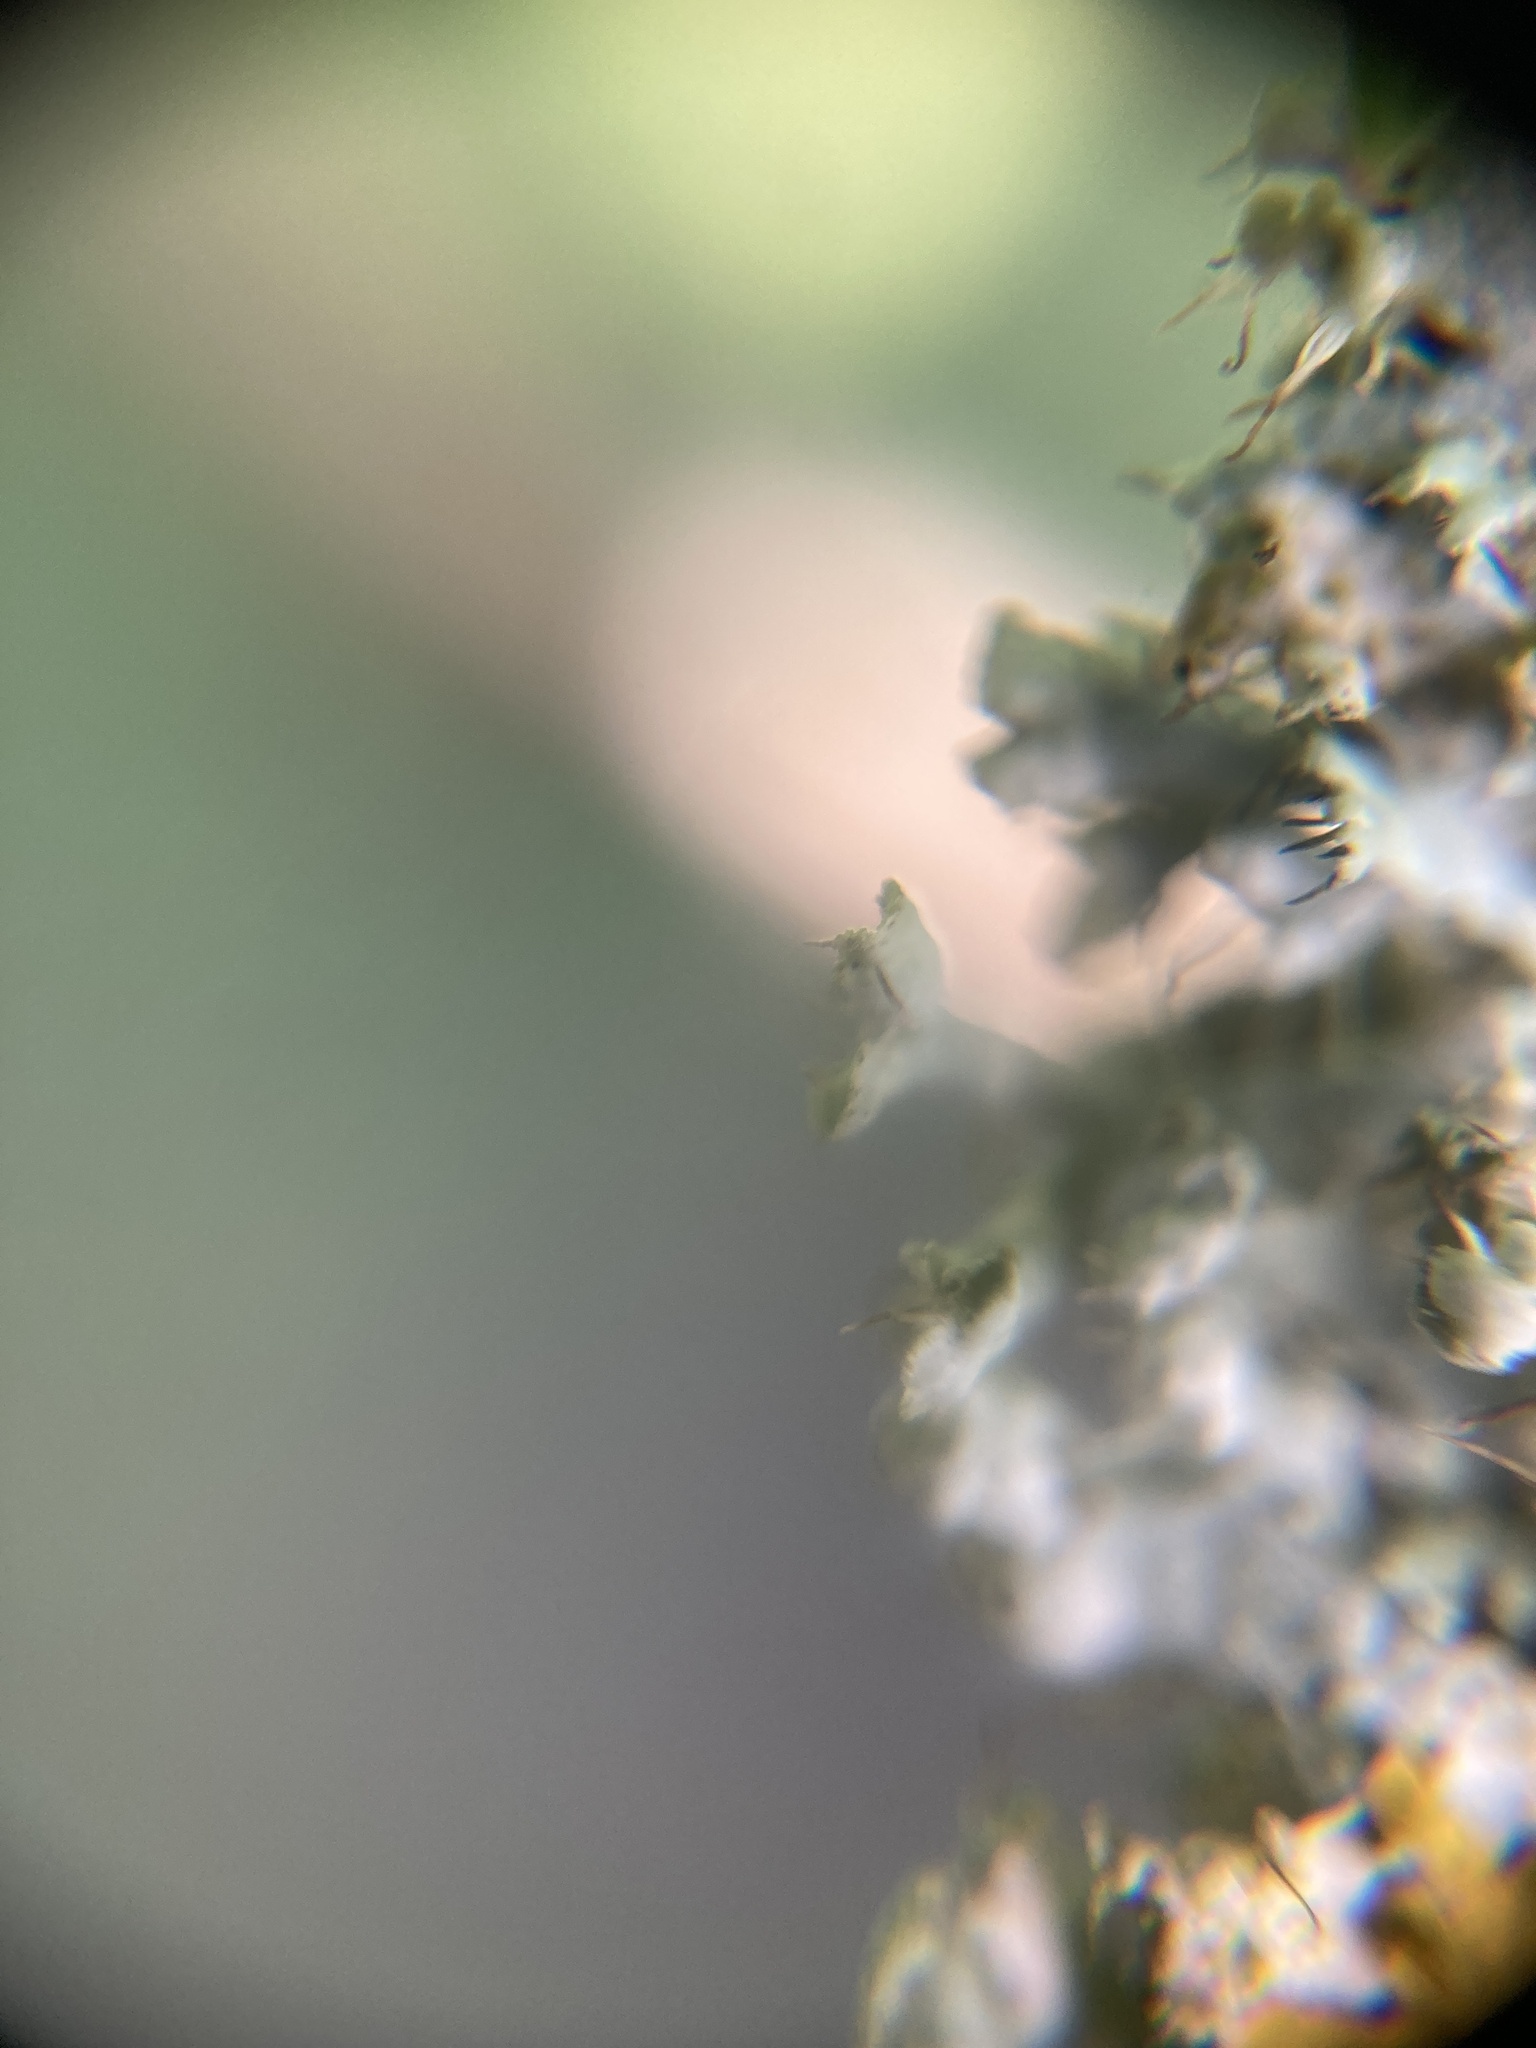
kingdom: Fungi
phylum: Ascomycota
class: Lecanoromycetes
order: Caliciales
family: Physciaceae
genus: Physcia
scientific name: Physcia adscendens
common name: Hooded rosette lichen
